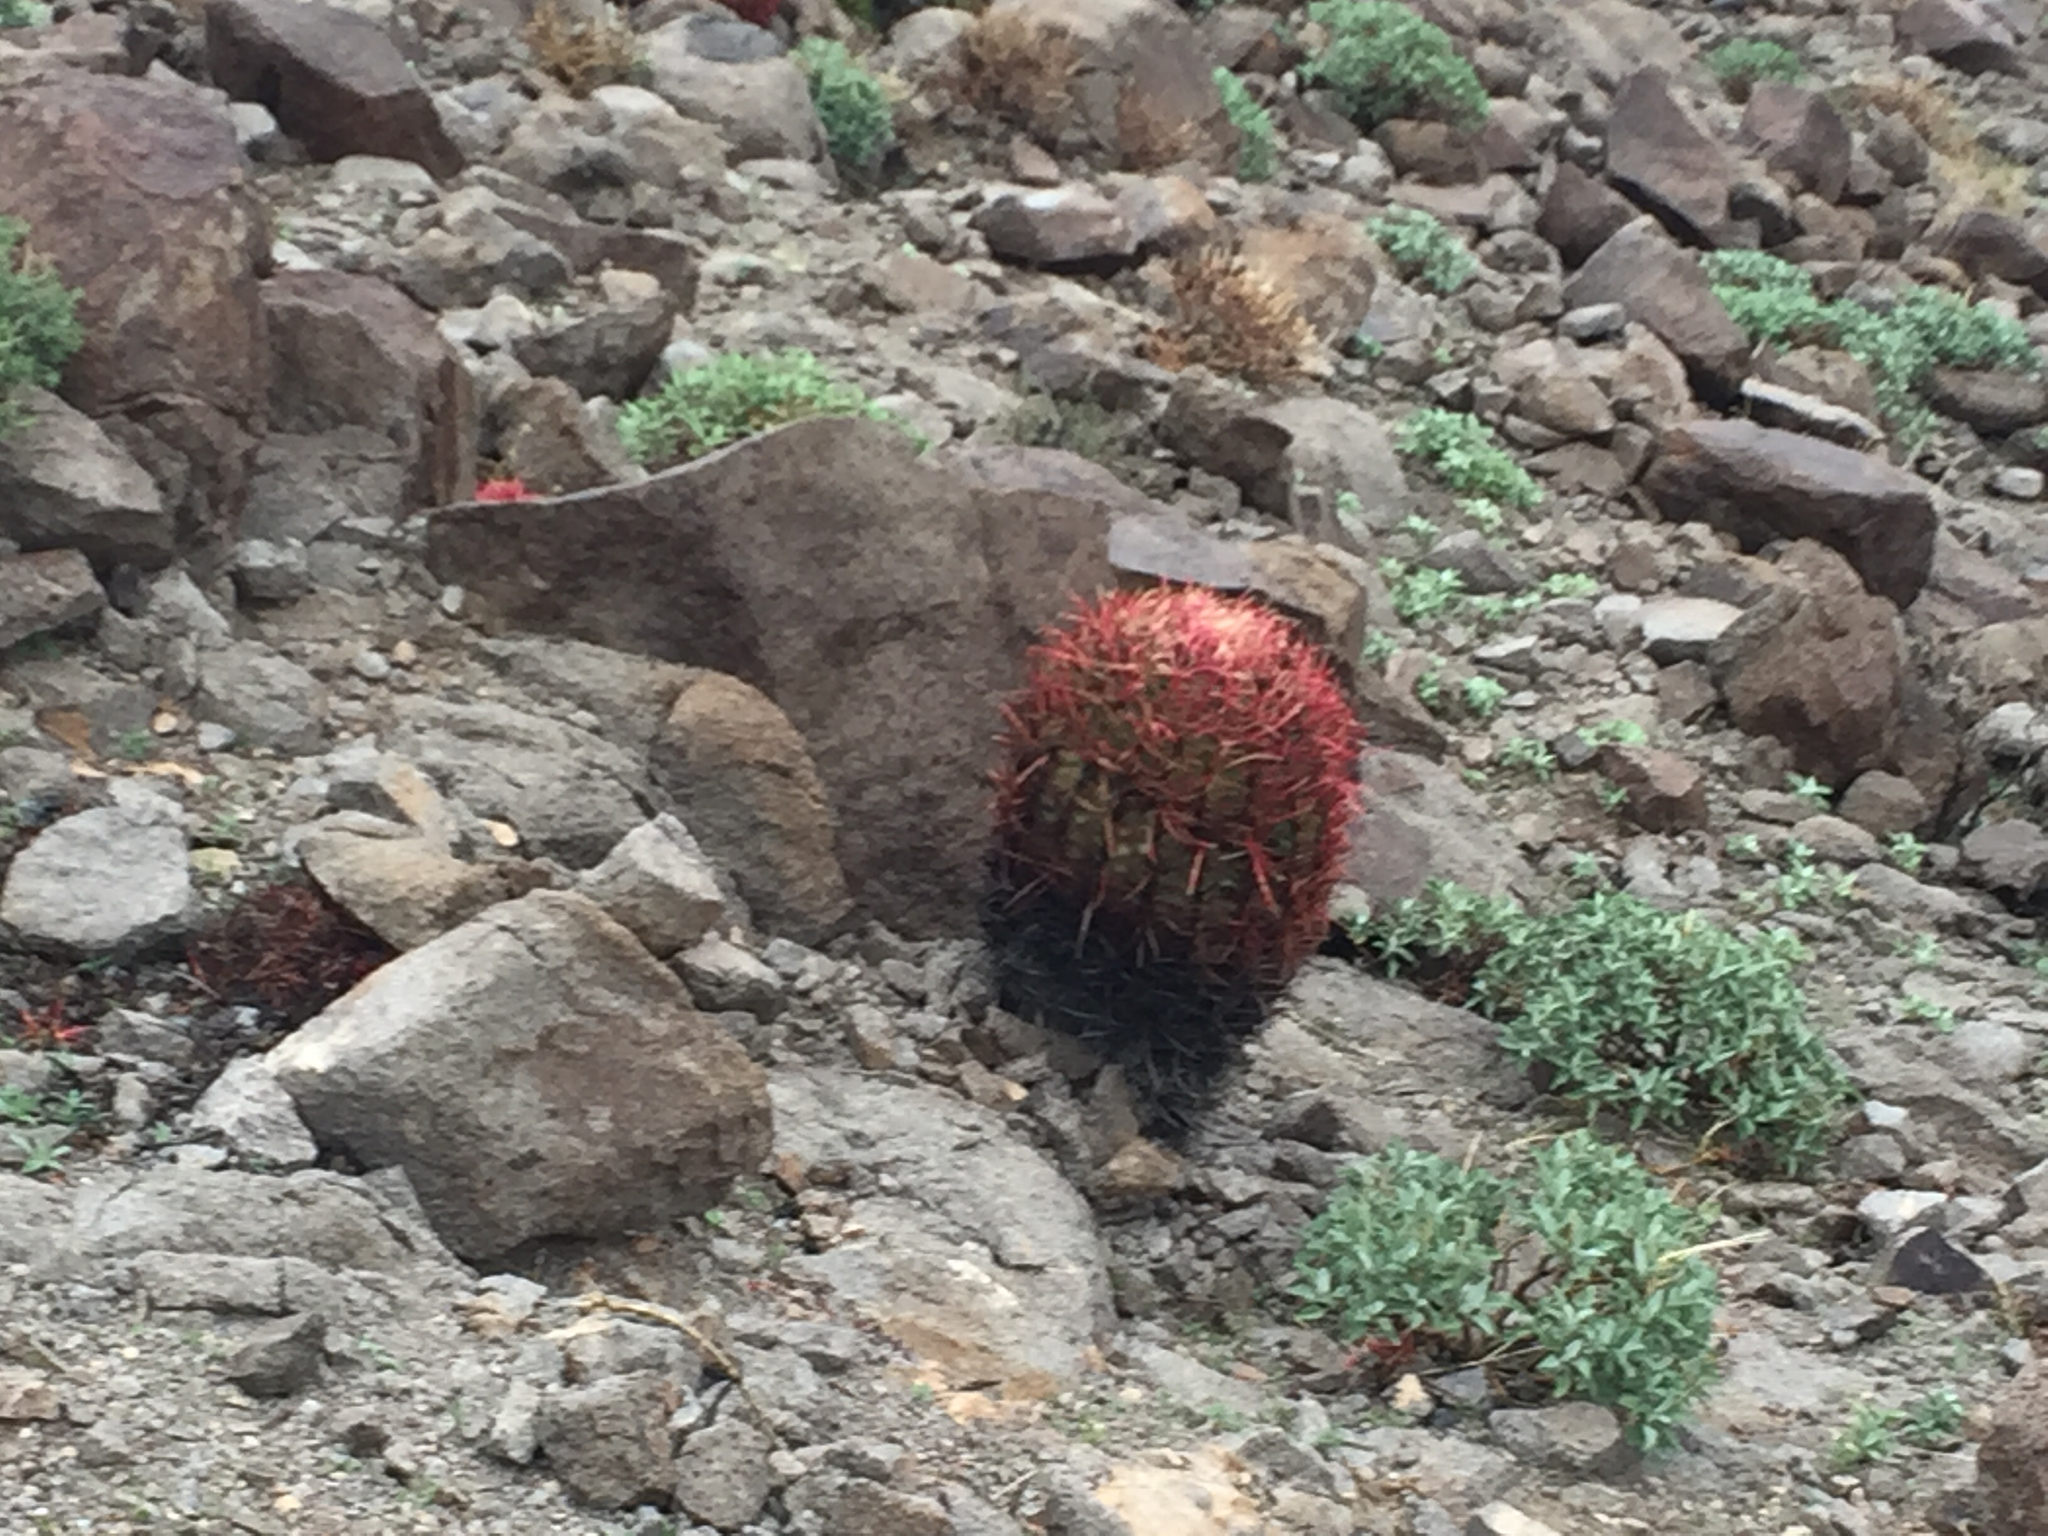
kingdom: Plantae
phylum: Tracheophyta
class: Magnoliopsida
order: Caryophyllales
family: Cactaceae
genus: Ferocactus
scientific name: Ferocactus cylindraceus
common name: California barrel cactus
